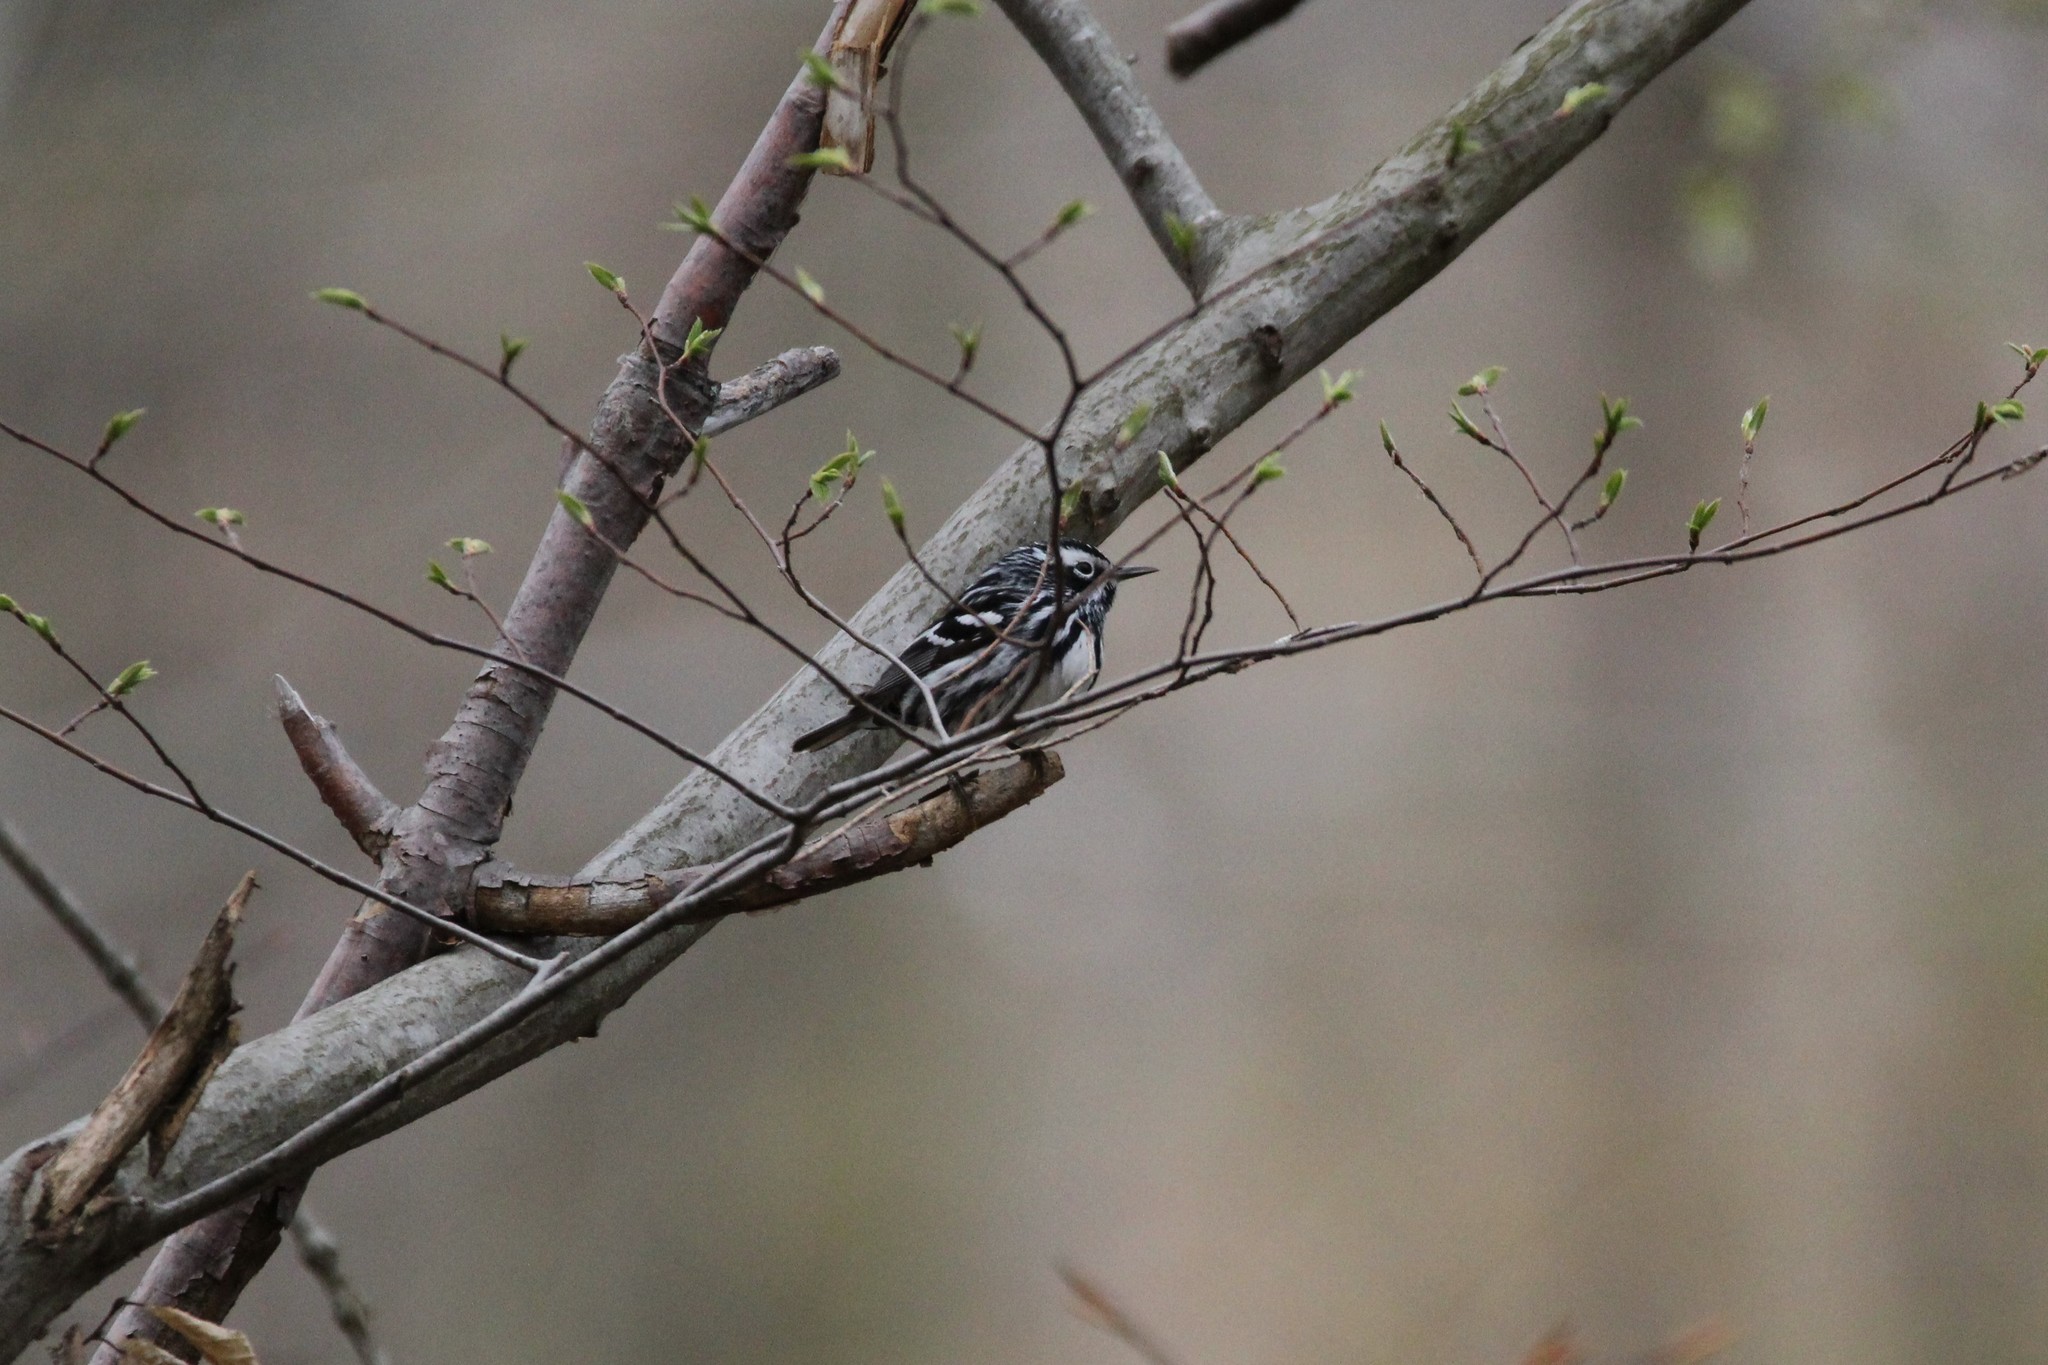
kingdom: Animalia
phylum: Chordata
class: Aves
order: Passeriformes
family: Parulidae
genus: Mniotilta
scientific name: Mniotilta varia
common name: Black-and-white warbler
